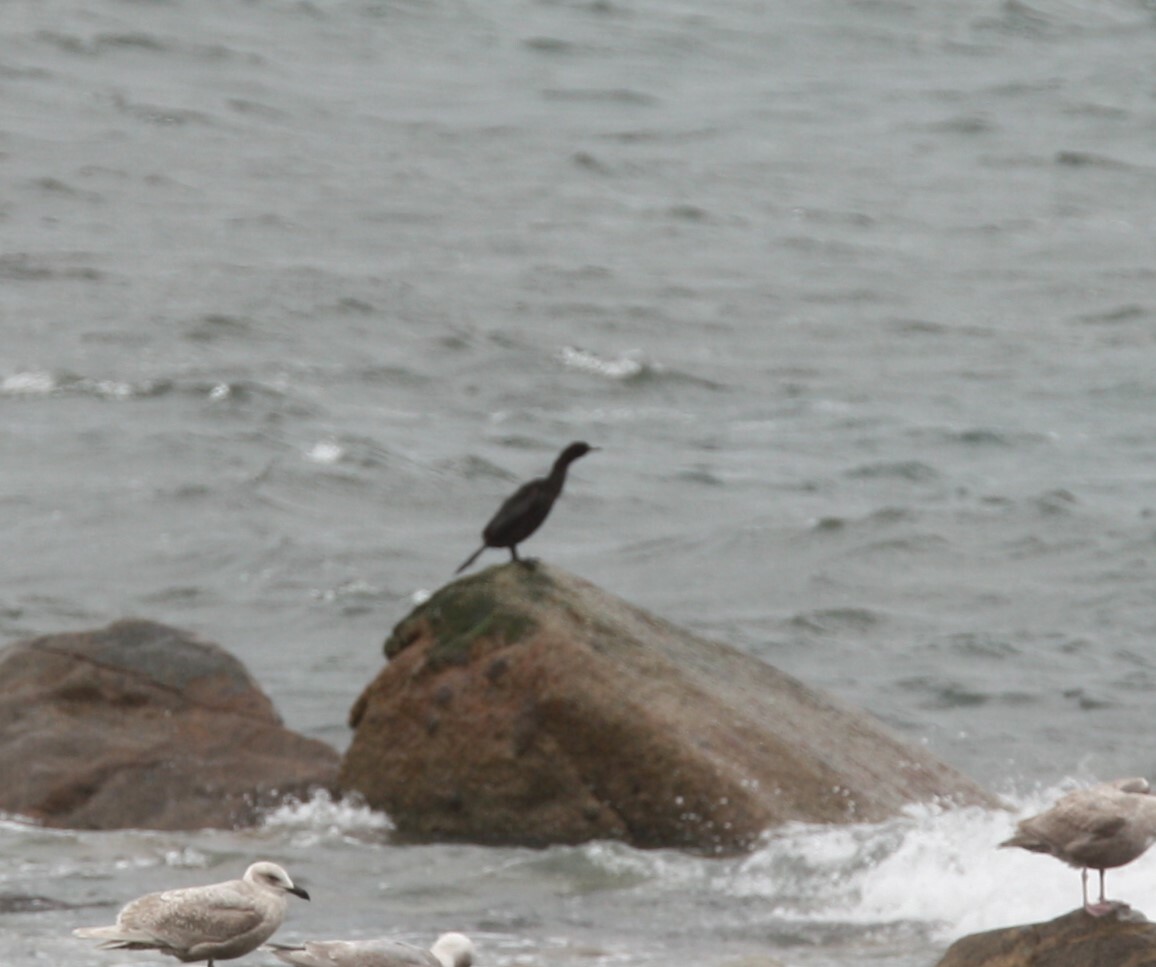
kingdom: Animalia
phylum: Chordata
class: Aves
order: Suliformes
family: Phalacrocoracidae
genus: Phalacrocorax
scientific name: Phalacrocorax pelagicus
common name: Pelagic cormorant
